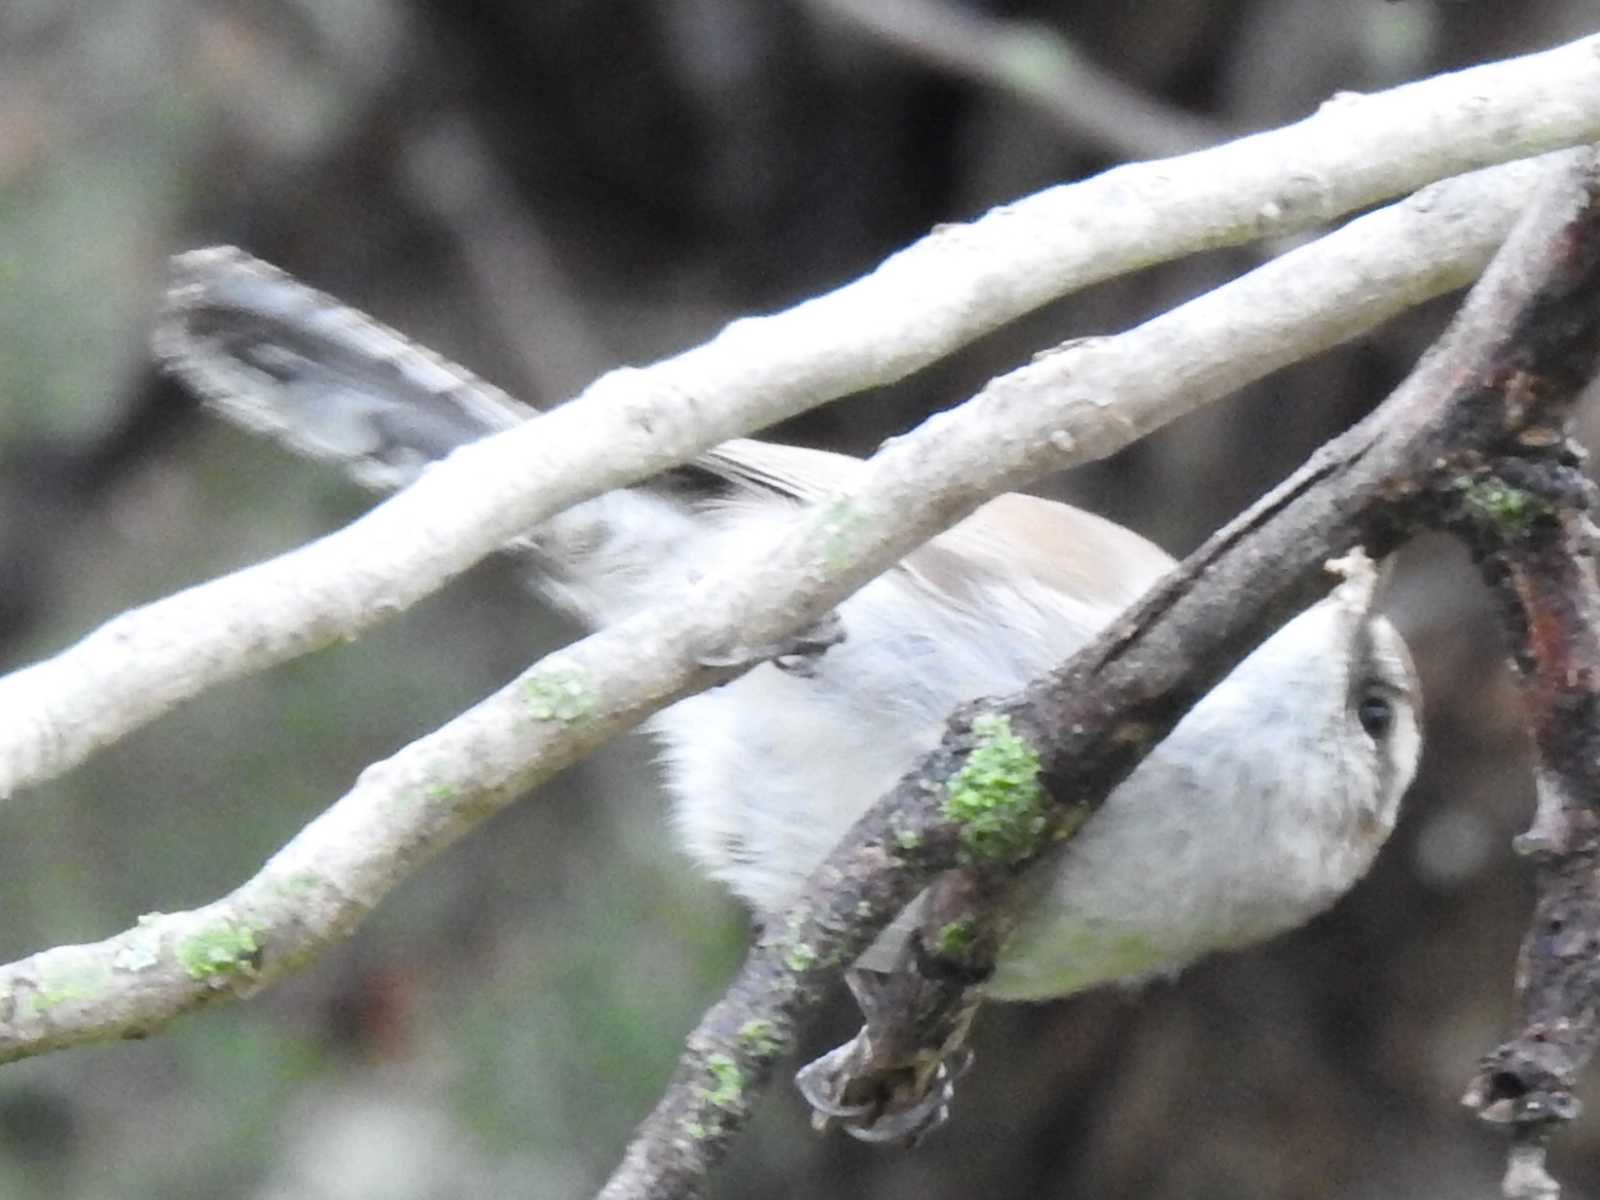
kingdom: Animalia
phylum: Chordata
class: Aves
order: Passeriformes
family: Troglodytidae
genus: Thryomanes
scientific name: Thryomanes bewickii
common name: Bewick's wren
